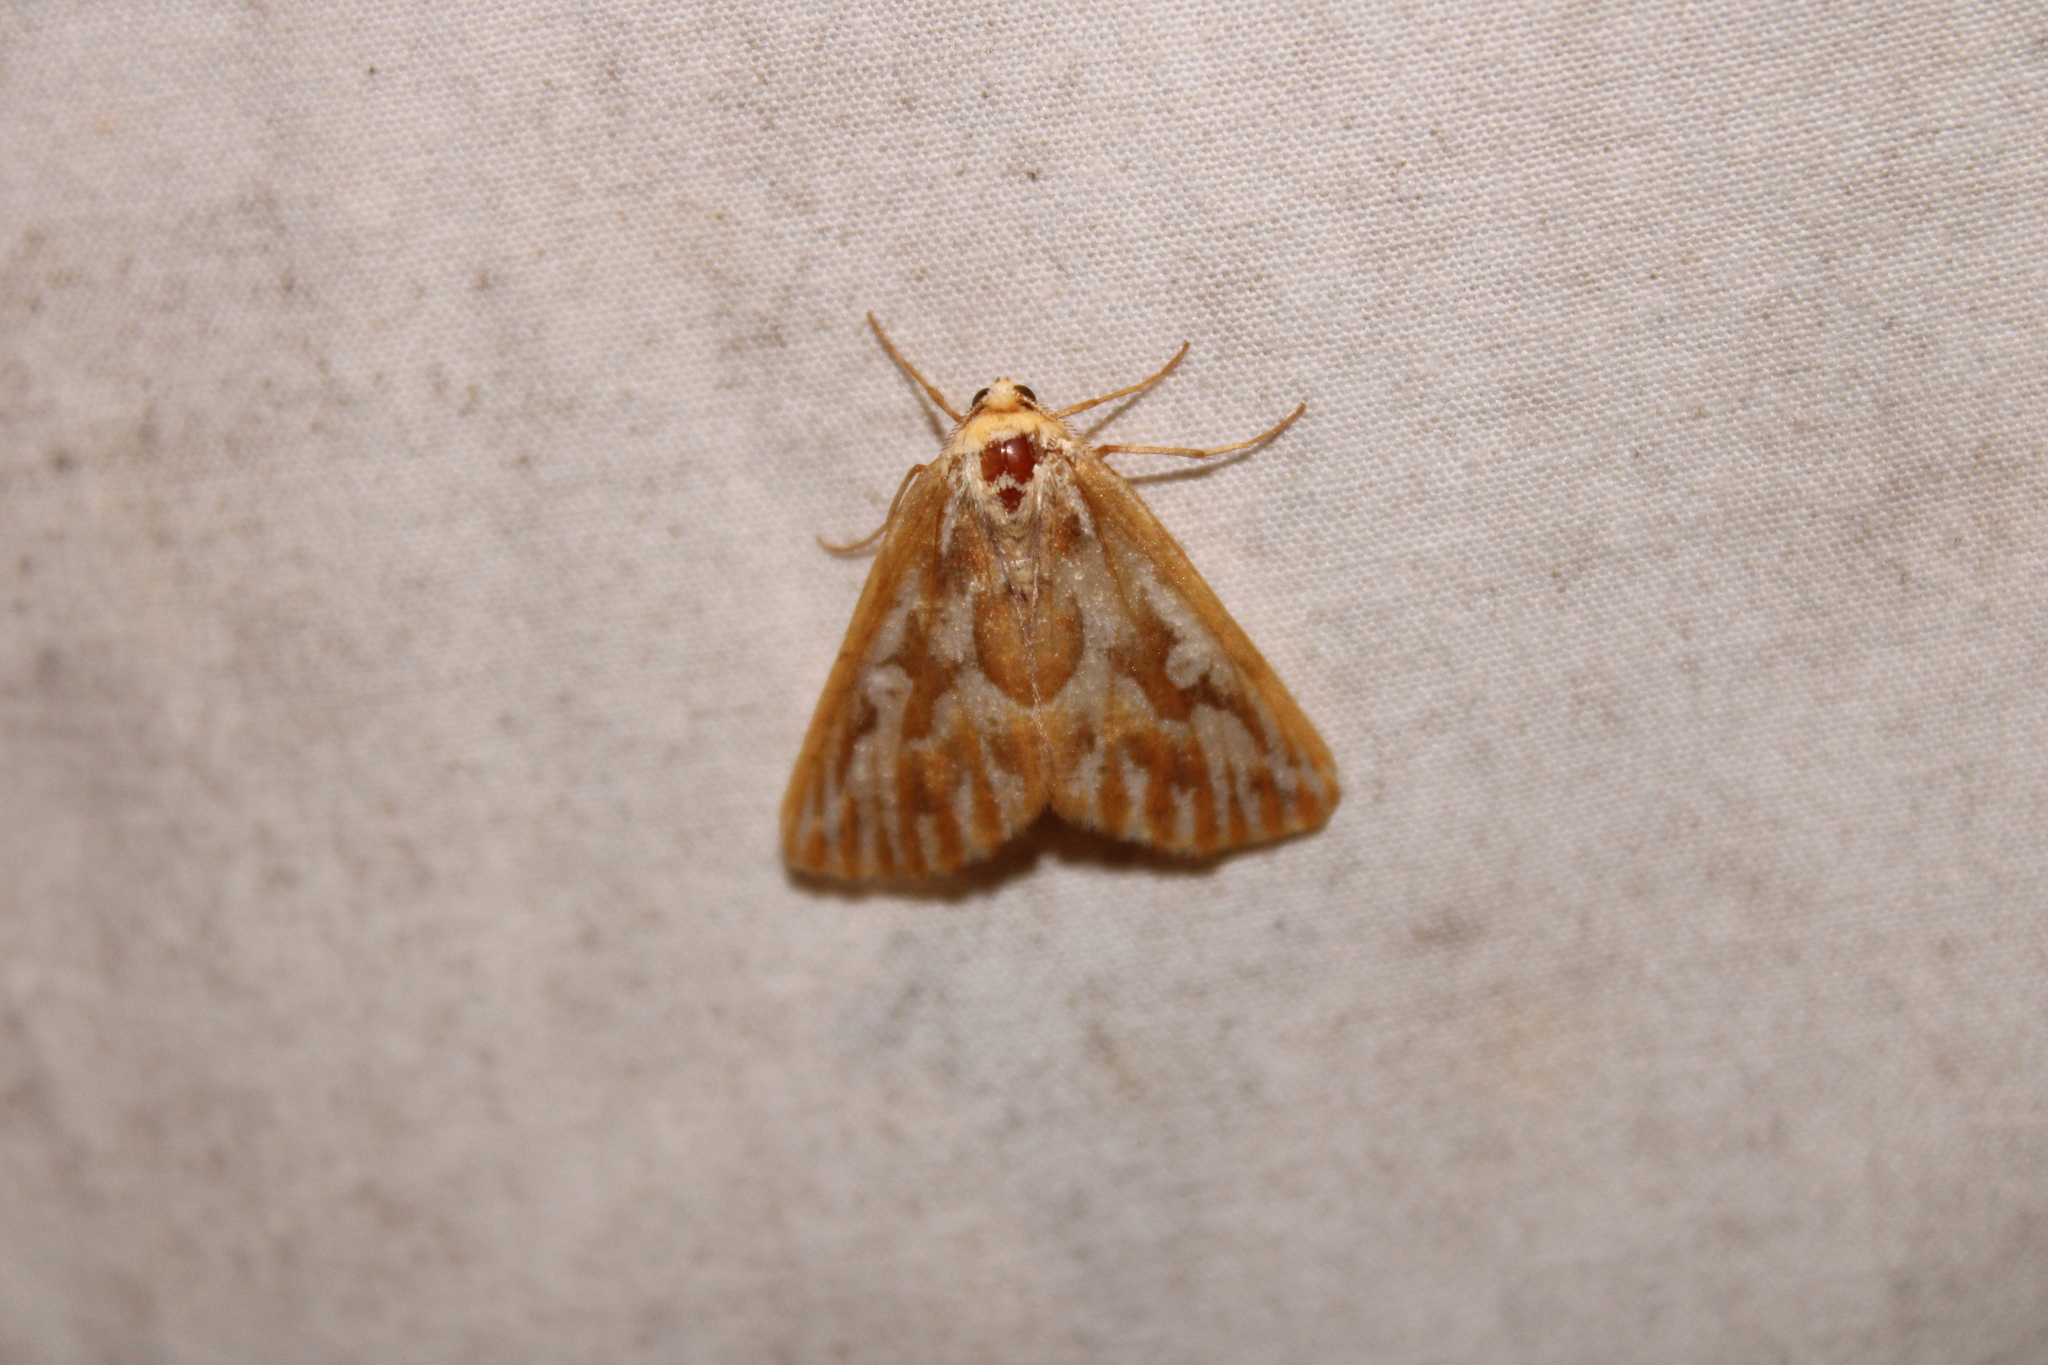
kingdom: Animalia
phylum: Arthropoda
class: Insecta
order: Lepidoptera
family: Geometridae
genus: Caripeta
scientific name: Caripeta piniata
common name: Northern pine looper moth
